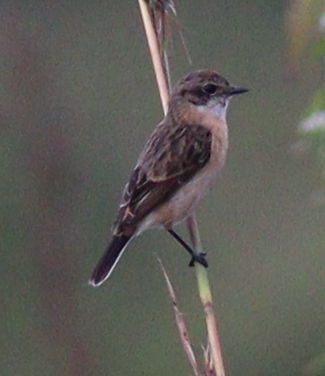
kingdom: Animalia
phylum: Chordata
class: Aves
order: Passeriformes
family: Muscicapidae
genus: Saxicola
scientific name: Saxicola stejnegeri
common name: Stejneger's stonechat
